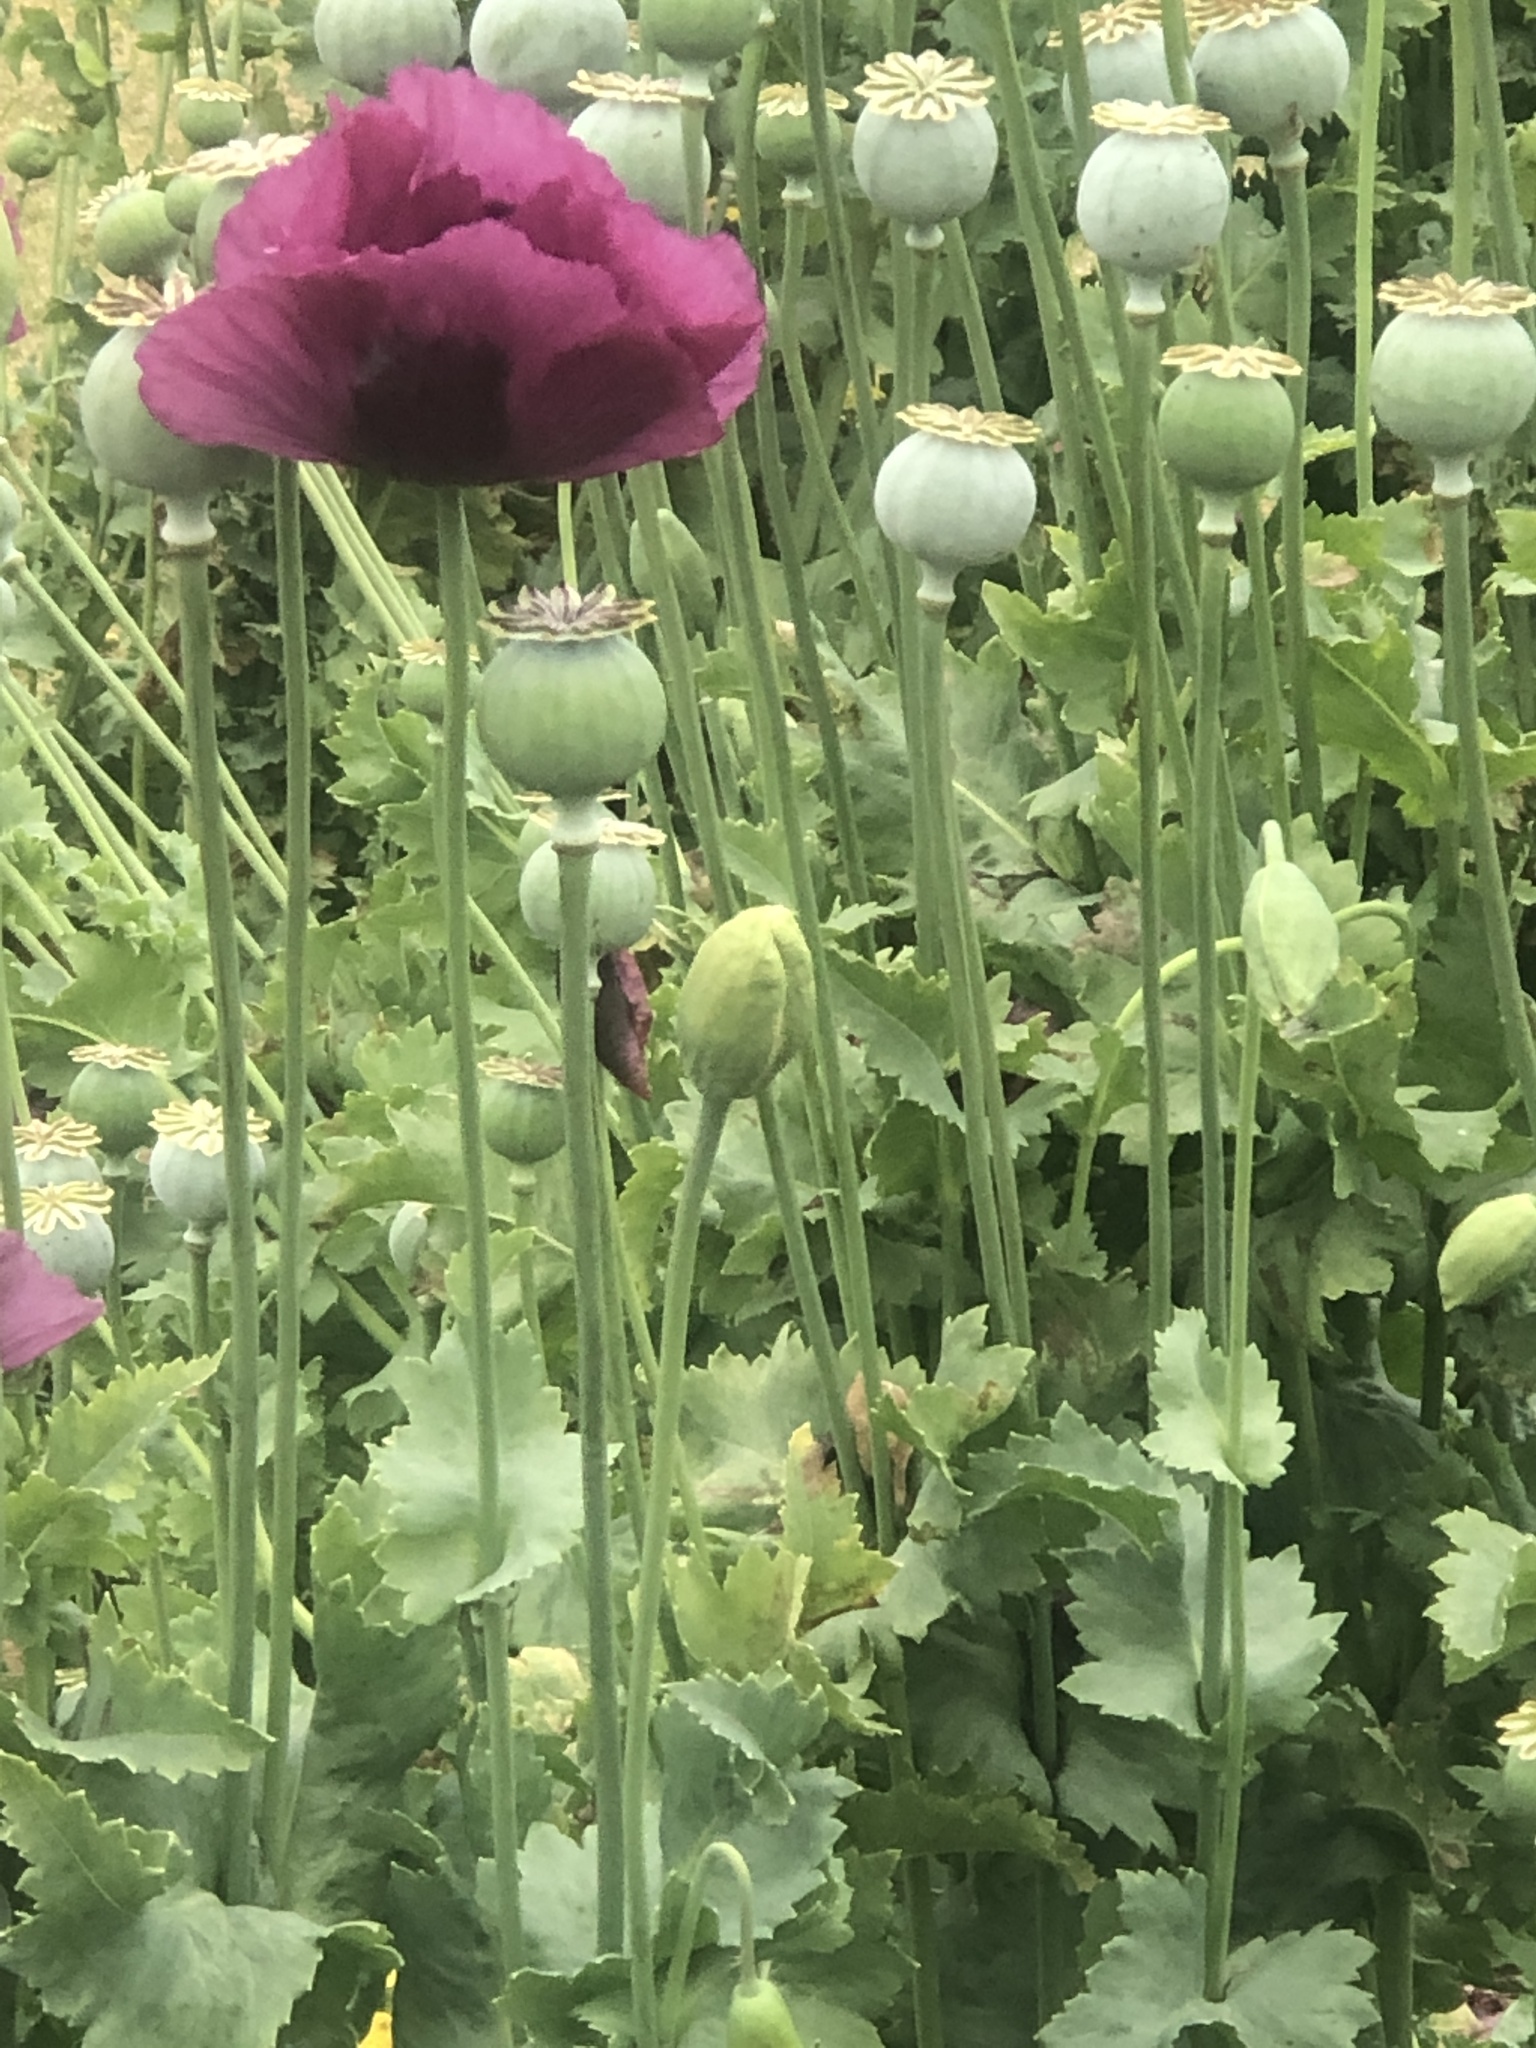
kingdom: Plantae
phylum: Tracheophyta
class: Magnoliopsida
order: Ranunculales
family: Papaveraceae
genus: Papaver
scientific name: Papaver somniferum
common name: Opium poppy
